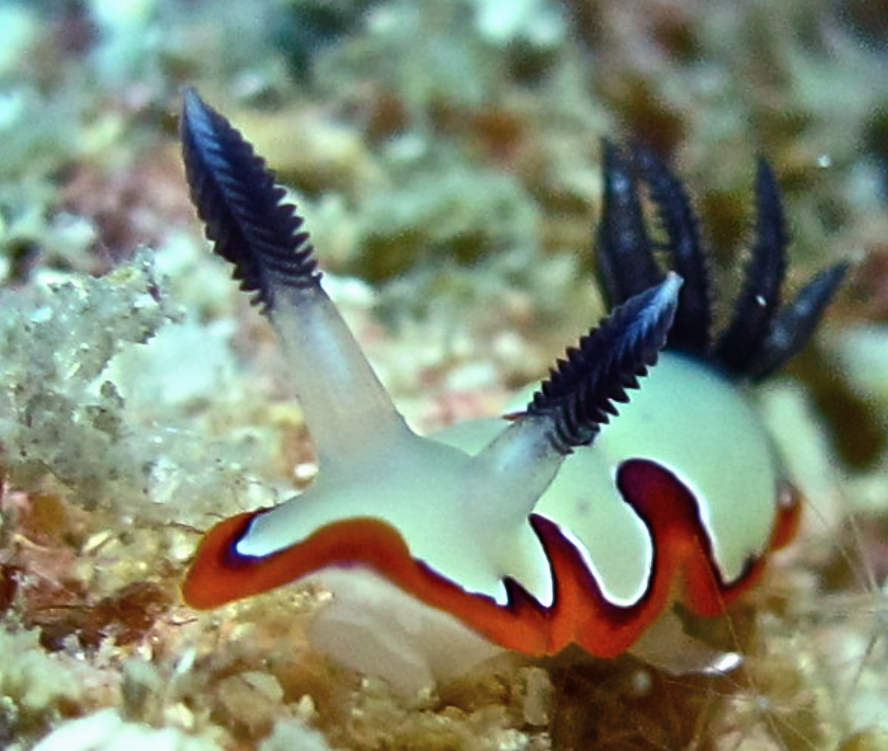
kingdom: Animalia
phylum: Mollusca
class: Gastropoda
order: Nudibranchia
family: Chromodorididae
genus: Goniobranchus
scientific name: Goniobranchus fidelis
